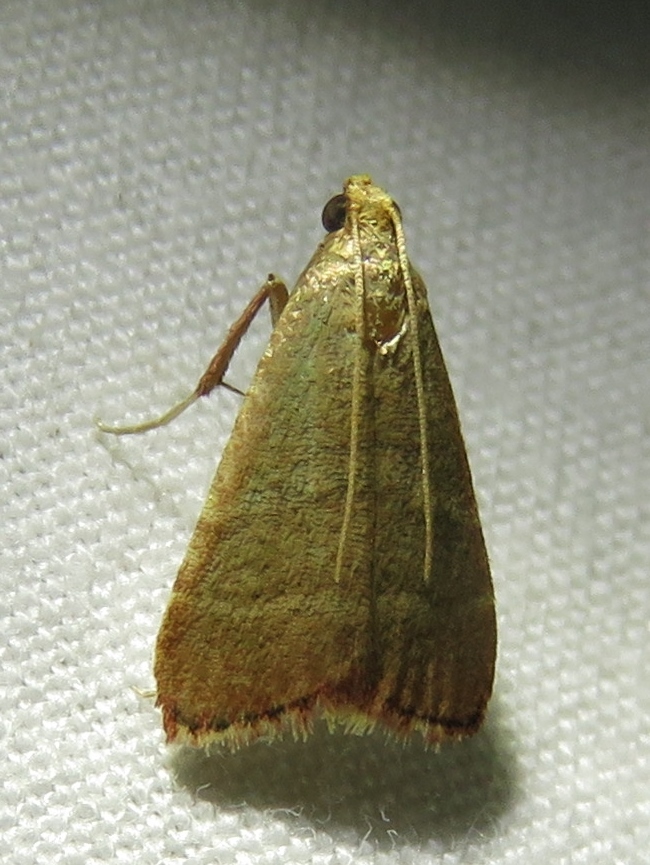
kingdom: Animalia
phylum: Arthropoda
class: Insecta
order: Lepidoptera
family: Pyralidae
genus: Arta
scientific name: Arta olivalis
